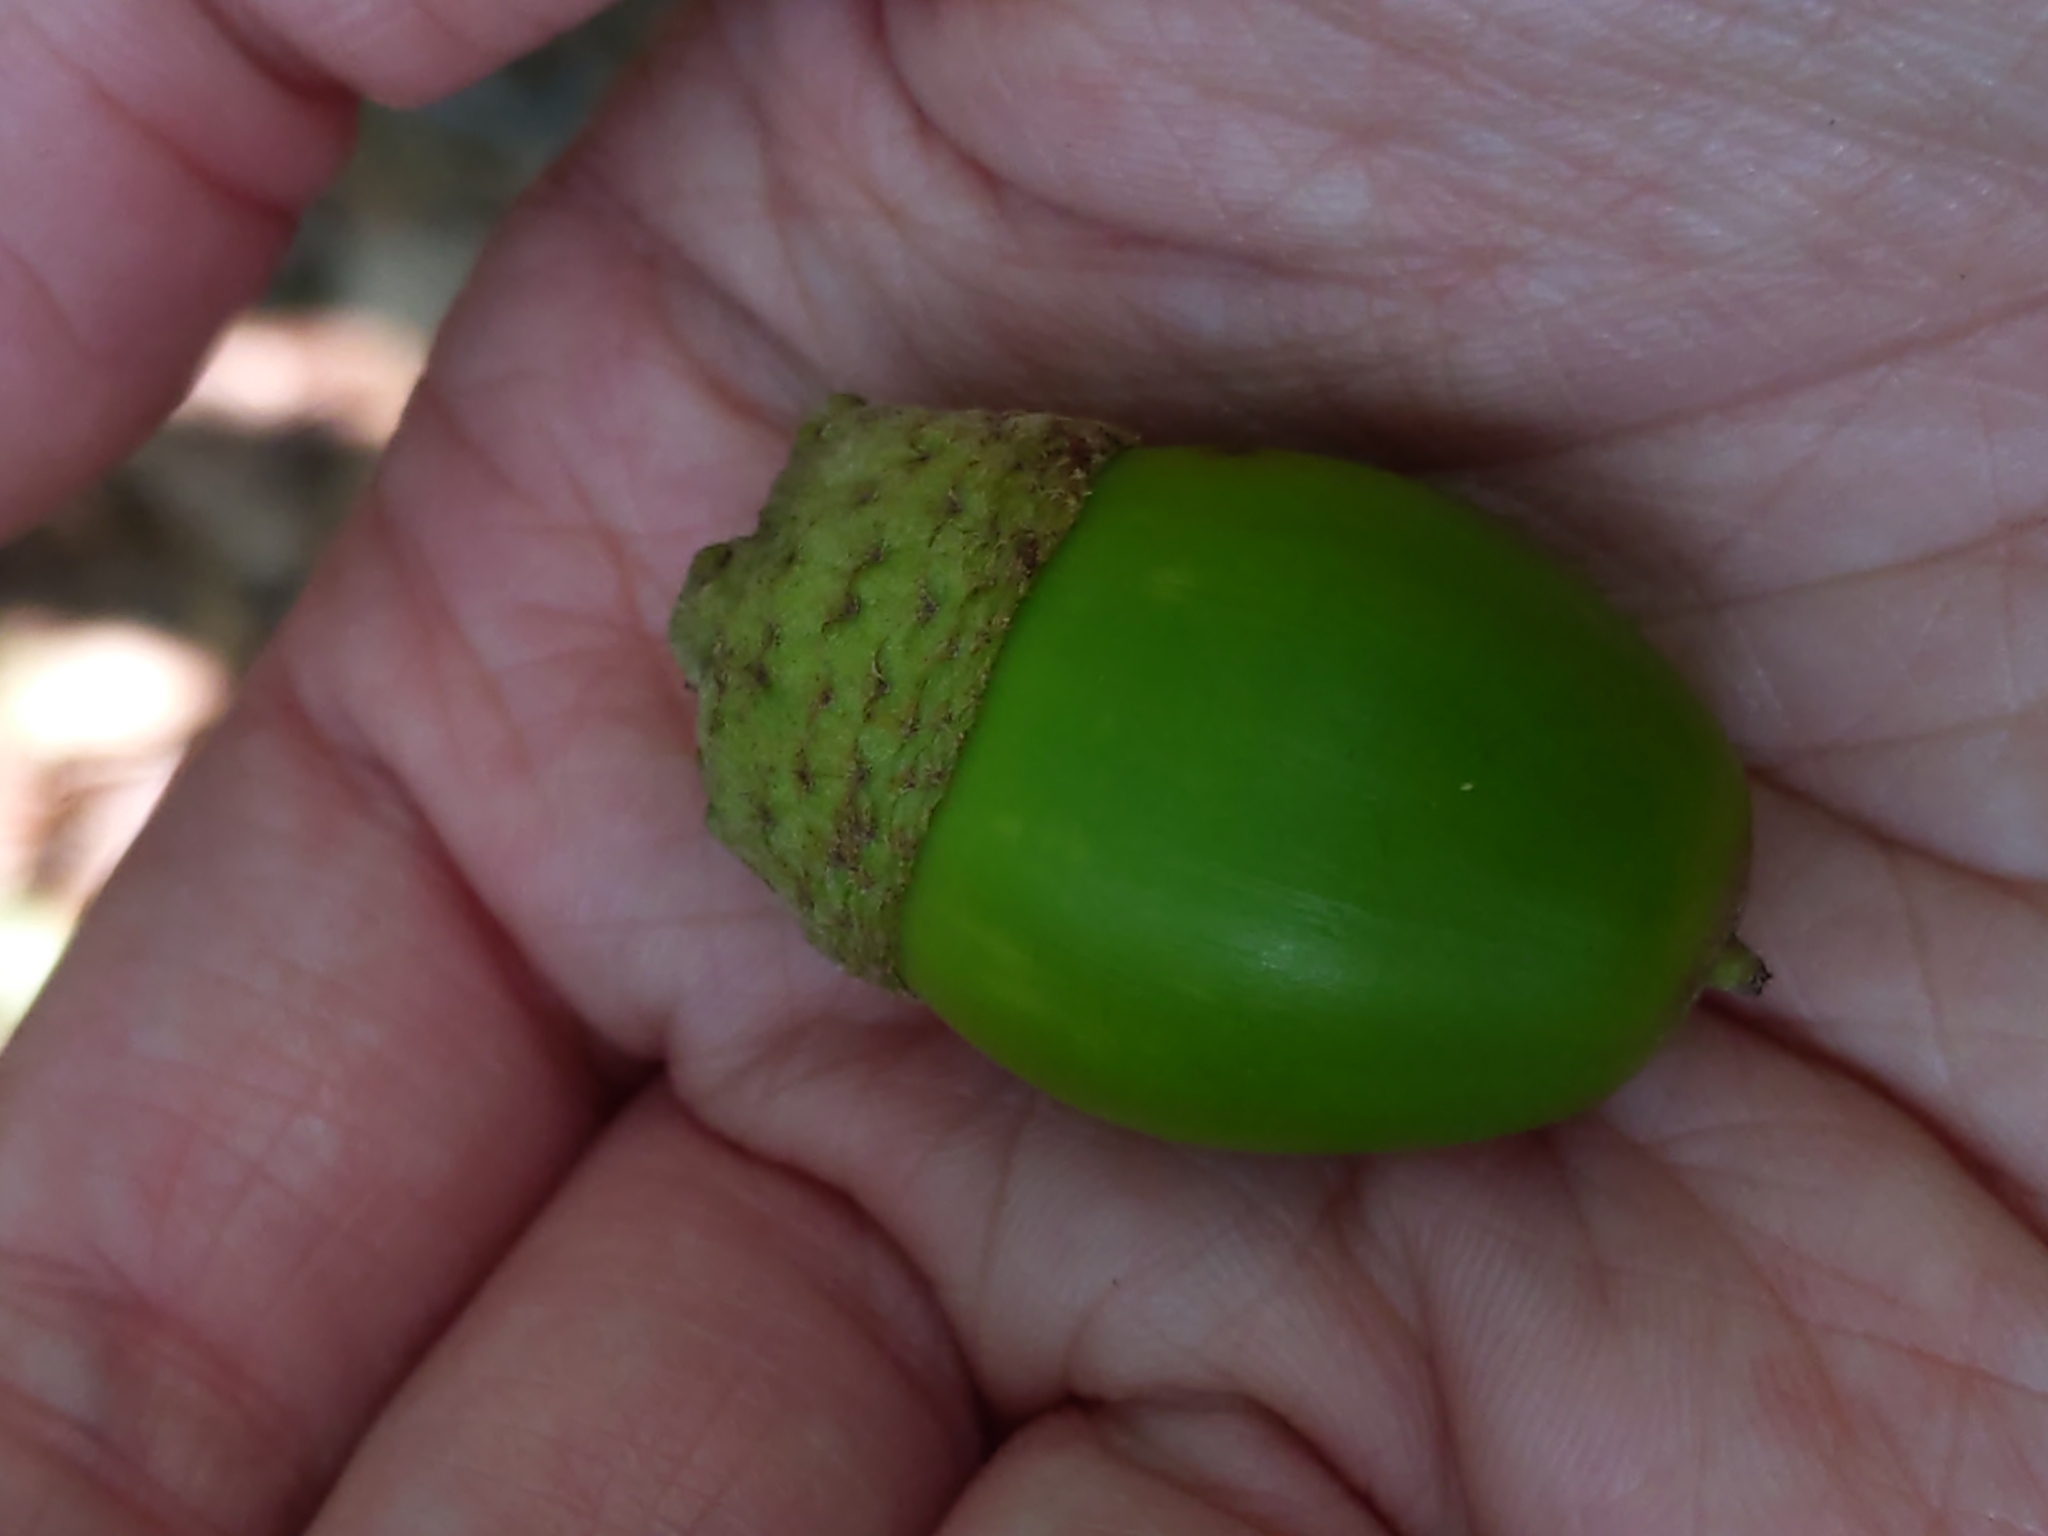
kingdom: Plantae
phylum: Tracheophyta
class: Magnoliopsida
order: Fagales
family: Fagaceae
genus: Quercus
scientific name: Quercus montana
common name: Chestnut oak
